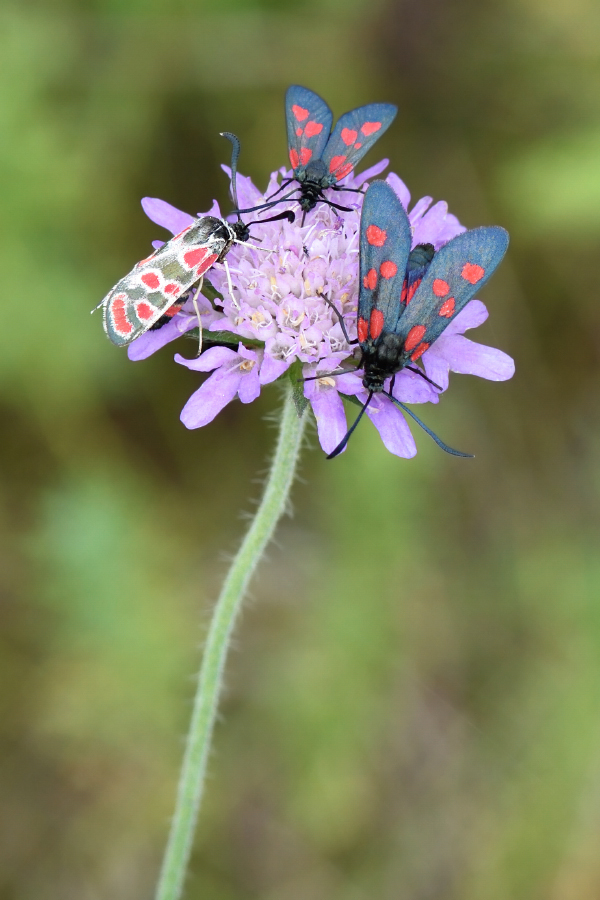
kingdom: Animalia
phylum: Arthropoda
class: Insecta
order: Lepidoptera
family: Zygaenidae
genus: Zygaena
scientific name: Zygaena angelicae
